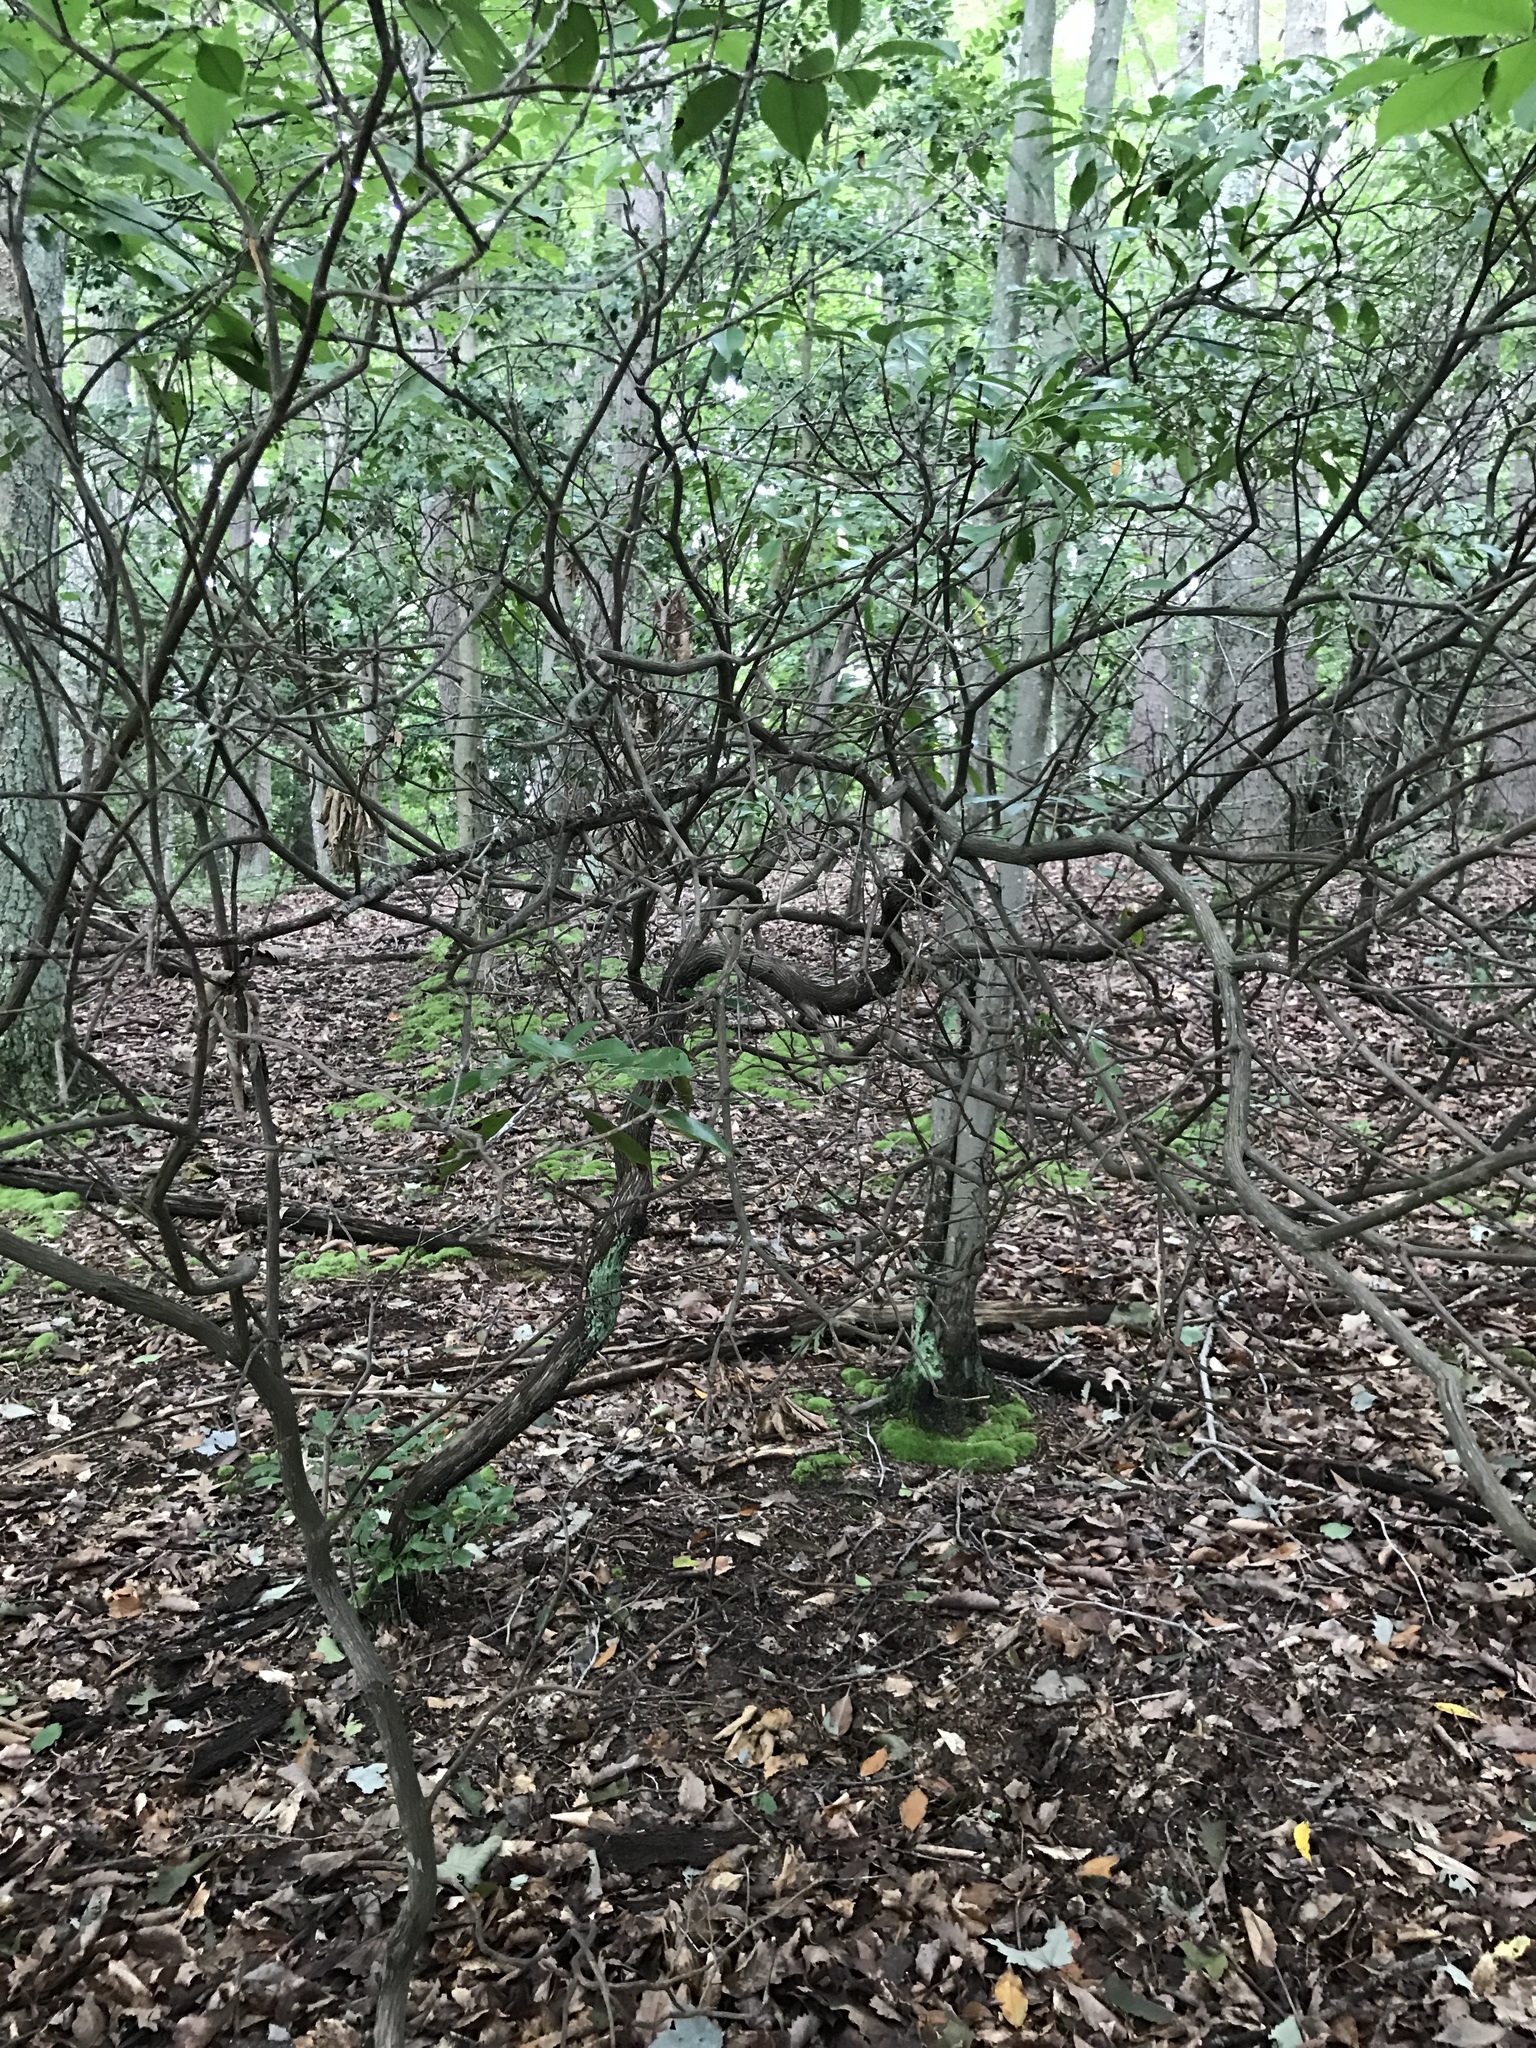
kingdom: Plantae
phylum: Tracheophyta
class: Magnoliopsida
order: Ericales
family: Ericaceae
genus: Kalmia
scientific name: Kalmia latifolia
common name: Mountain-laurel
